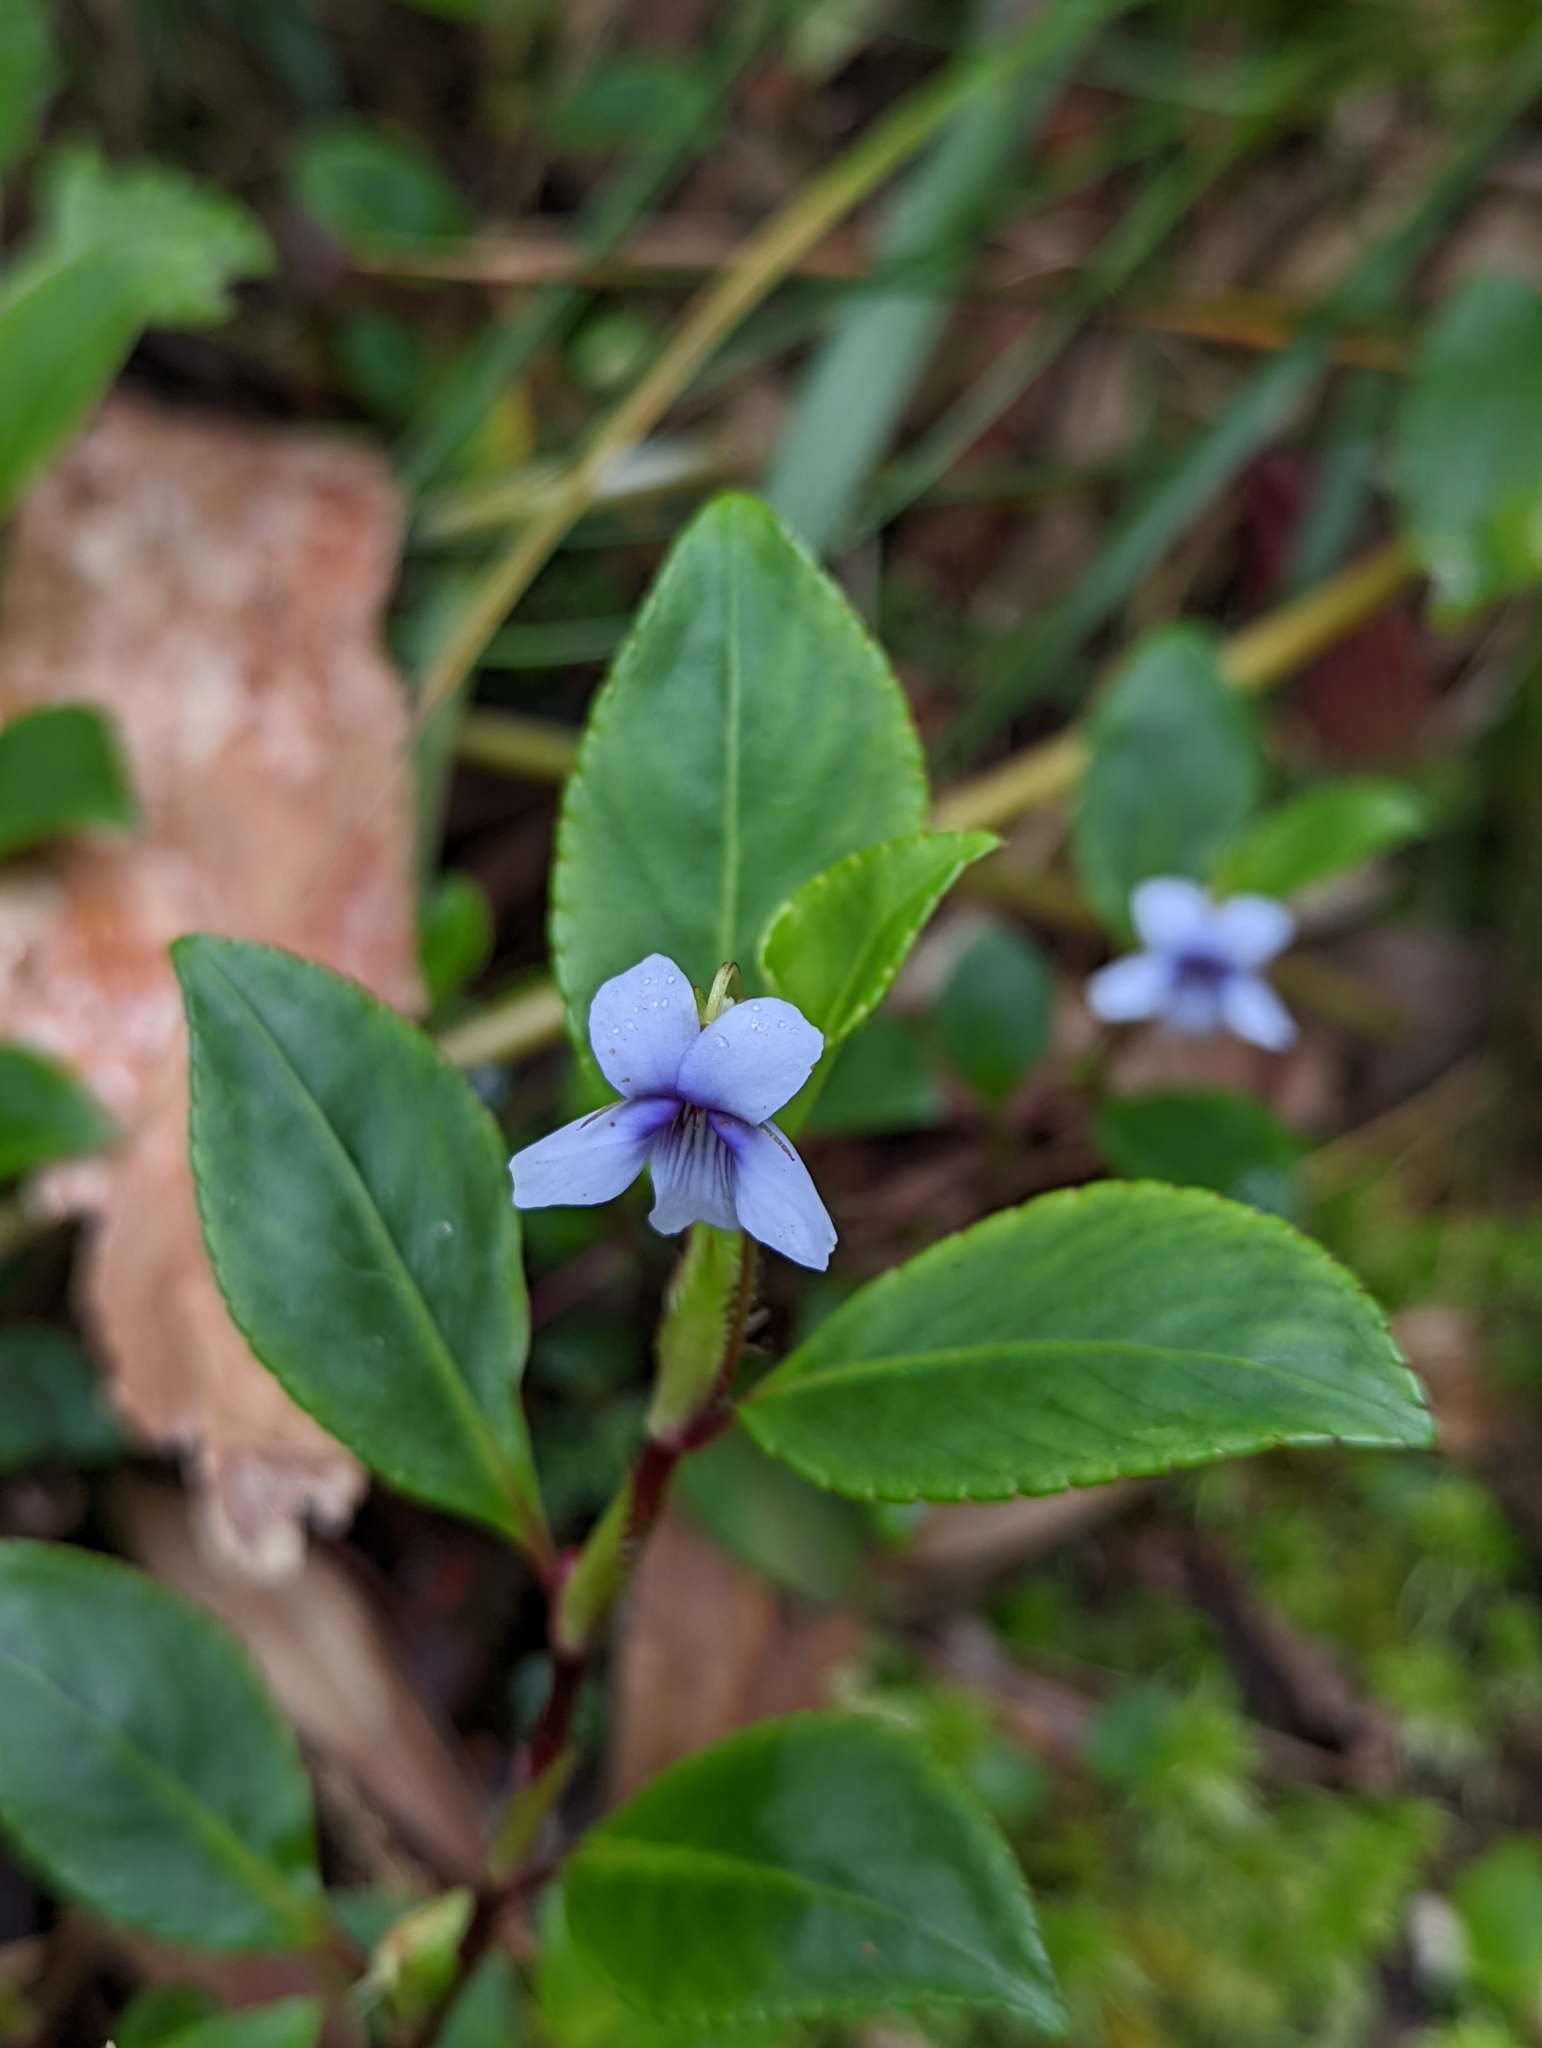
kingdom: Plantae
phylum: Tracheophyta
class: Magnoliopsida
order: Malpighiales
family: Violaceae
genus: Viola
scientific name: Viola stipularis
